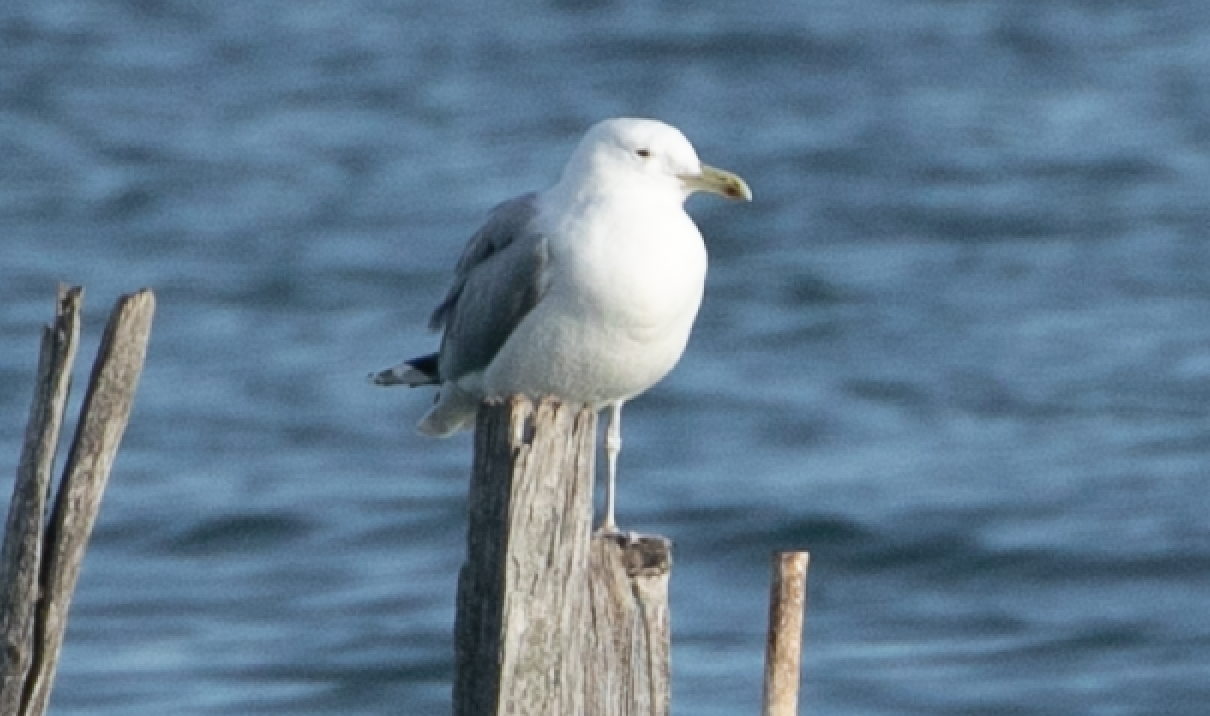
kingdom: Animalia
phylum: Chordata
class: Aves
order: Charadriiformes
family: Laridae
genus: Larus
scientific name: Larus cachinnans
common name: Caspian gull
